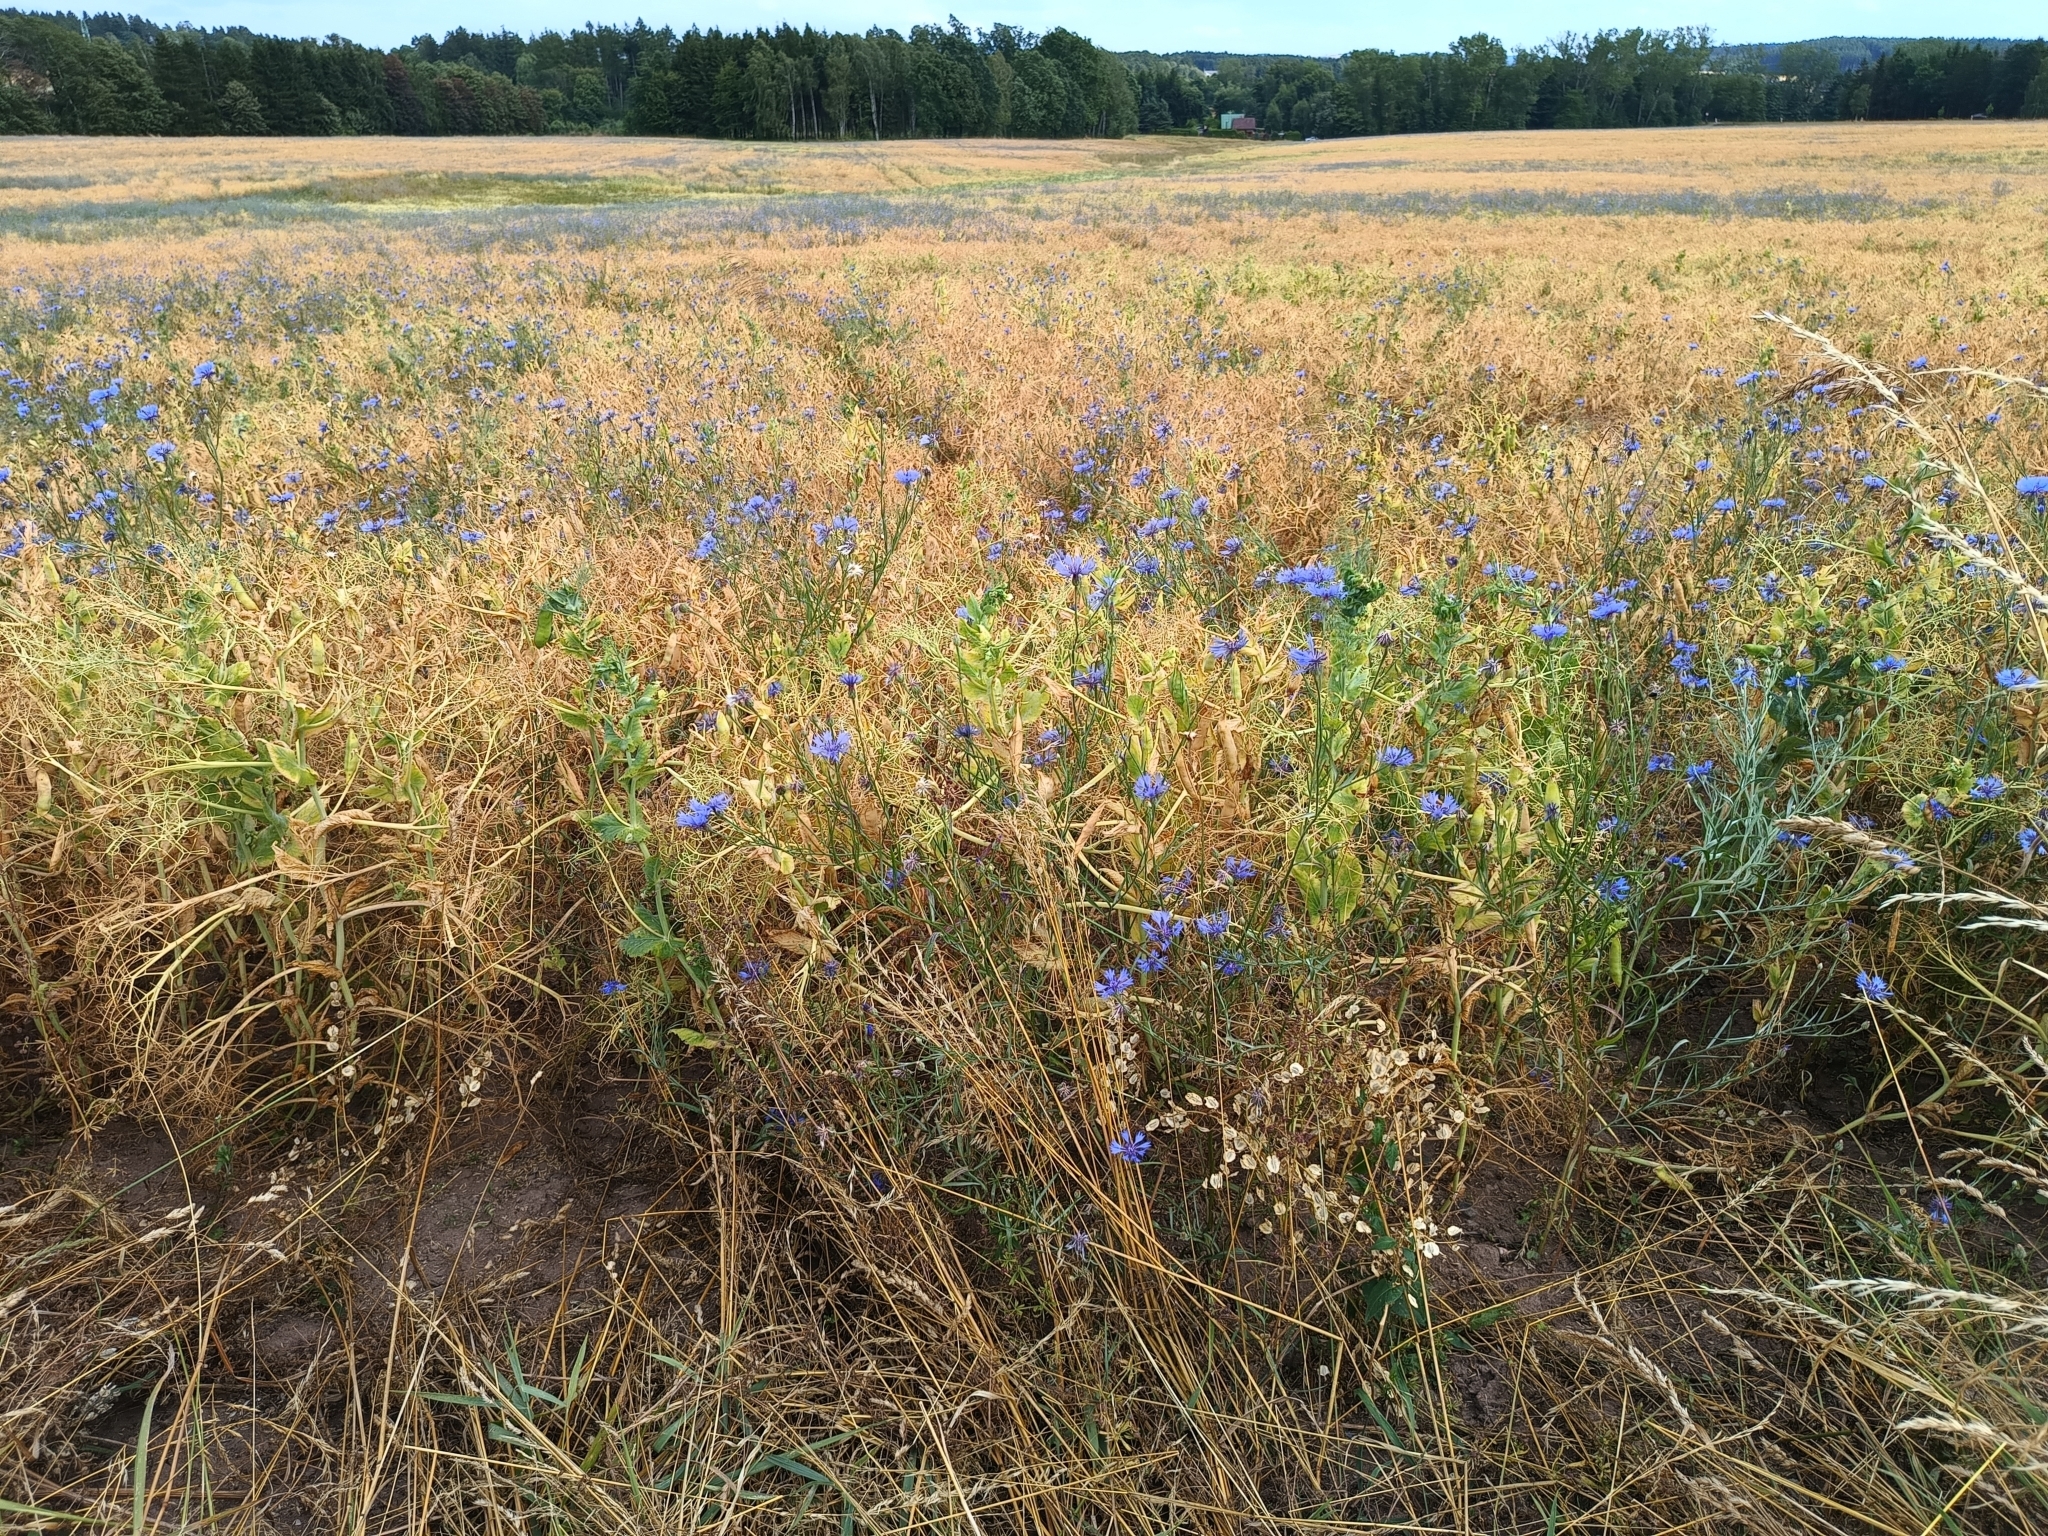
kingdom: Plantae
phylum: Tracheophyta
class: Magnoliopsida
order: Asterales
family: Asteraceae
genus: Centaurea
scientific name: Centaurea cyanus
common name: Cornflower
